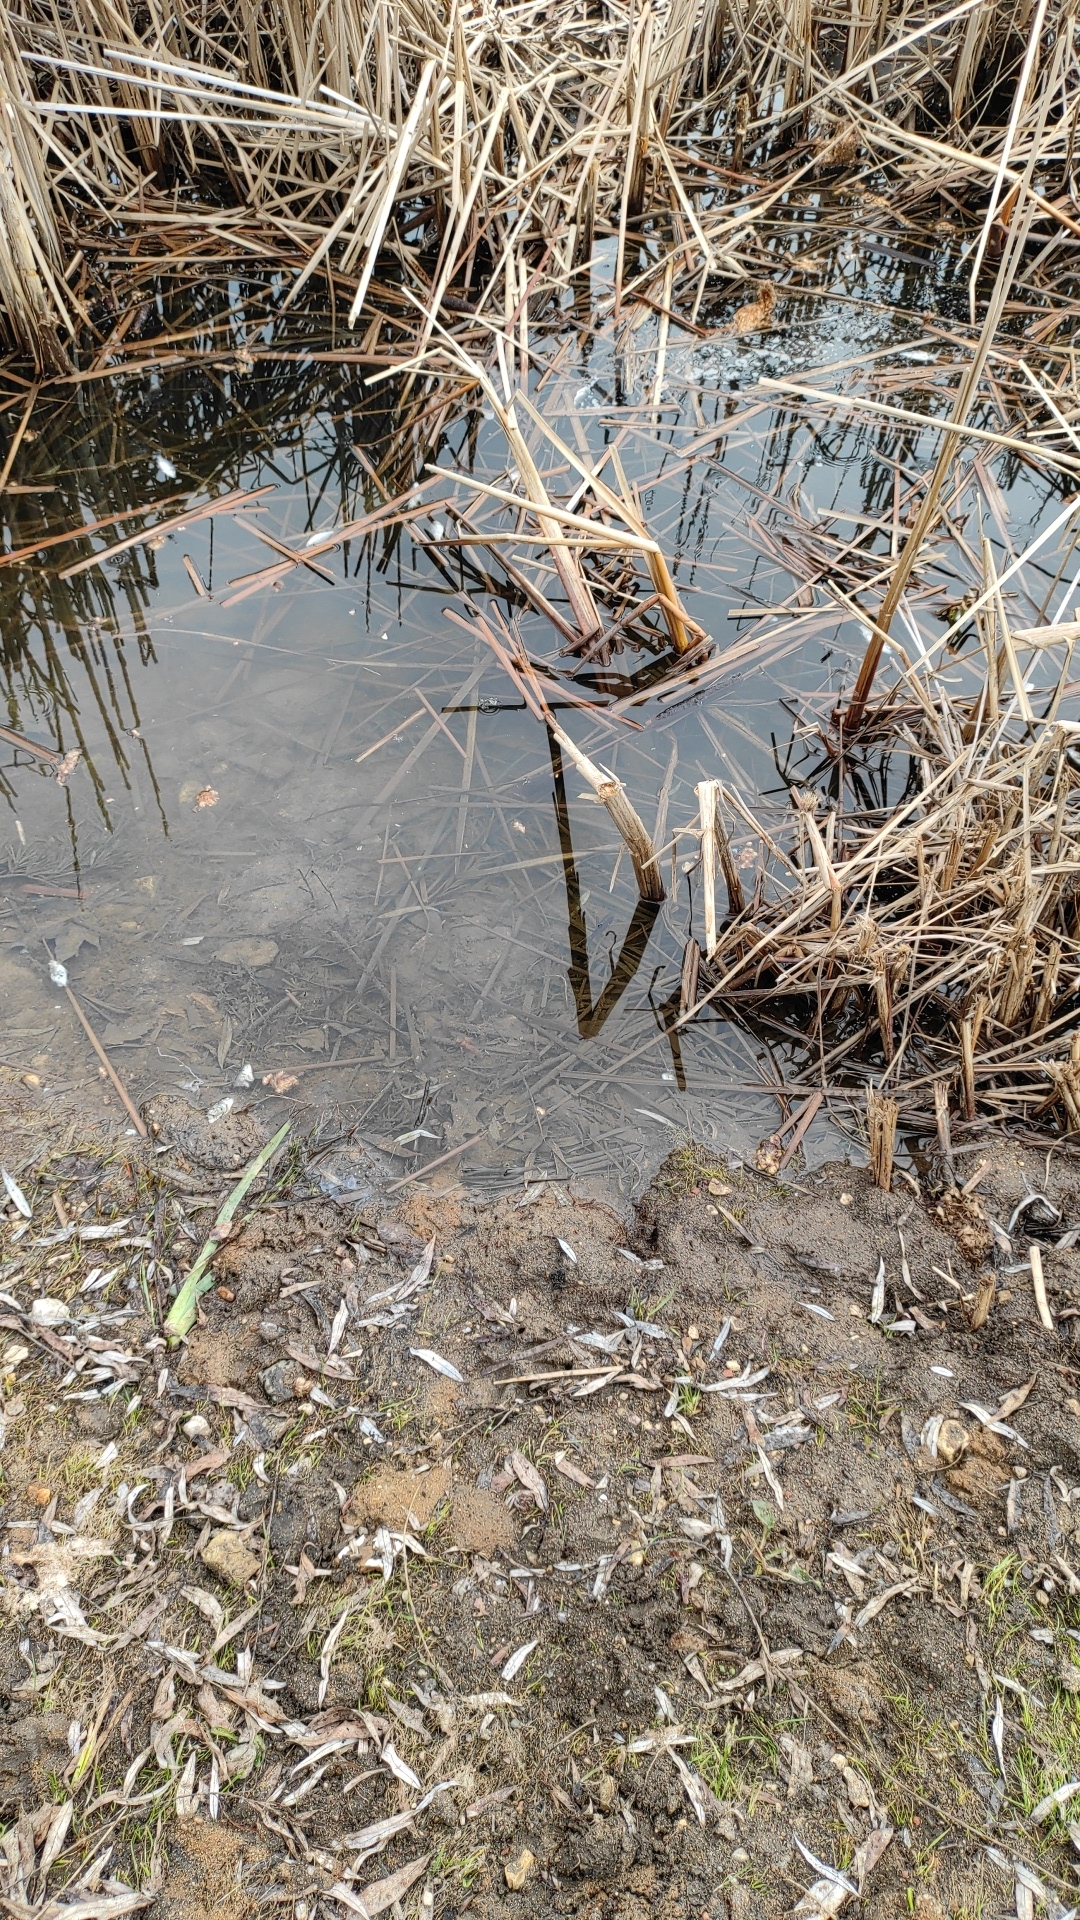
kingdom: Animalia
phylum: Chordata
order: Cypriniformes
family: Cyprinidae
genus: Carassius
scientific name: Carassius gibelio
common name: Prussian carp
